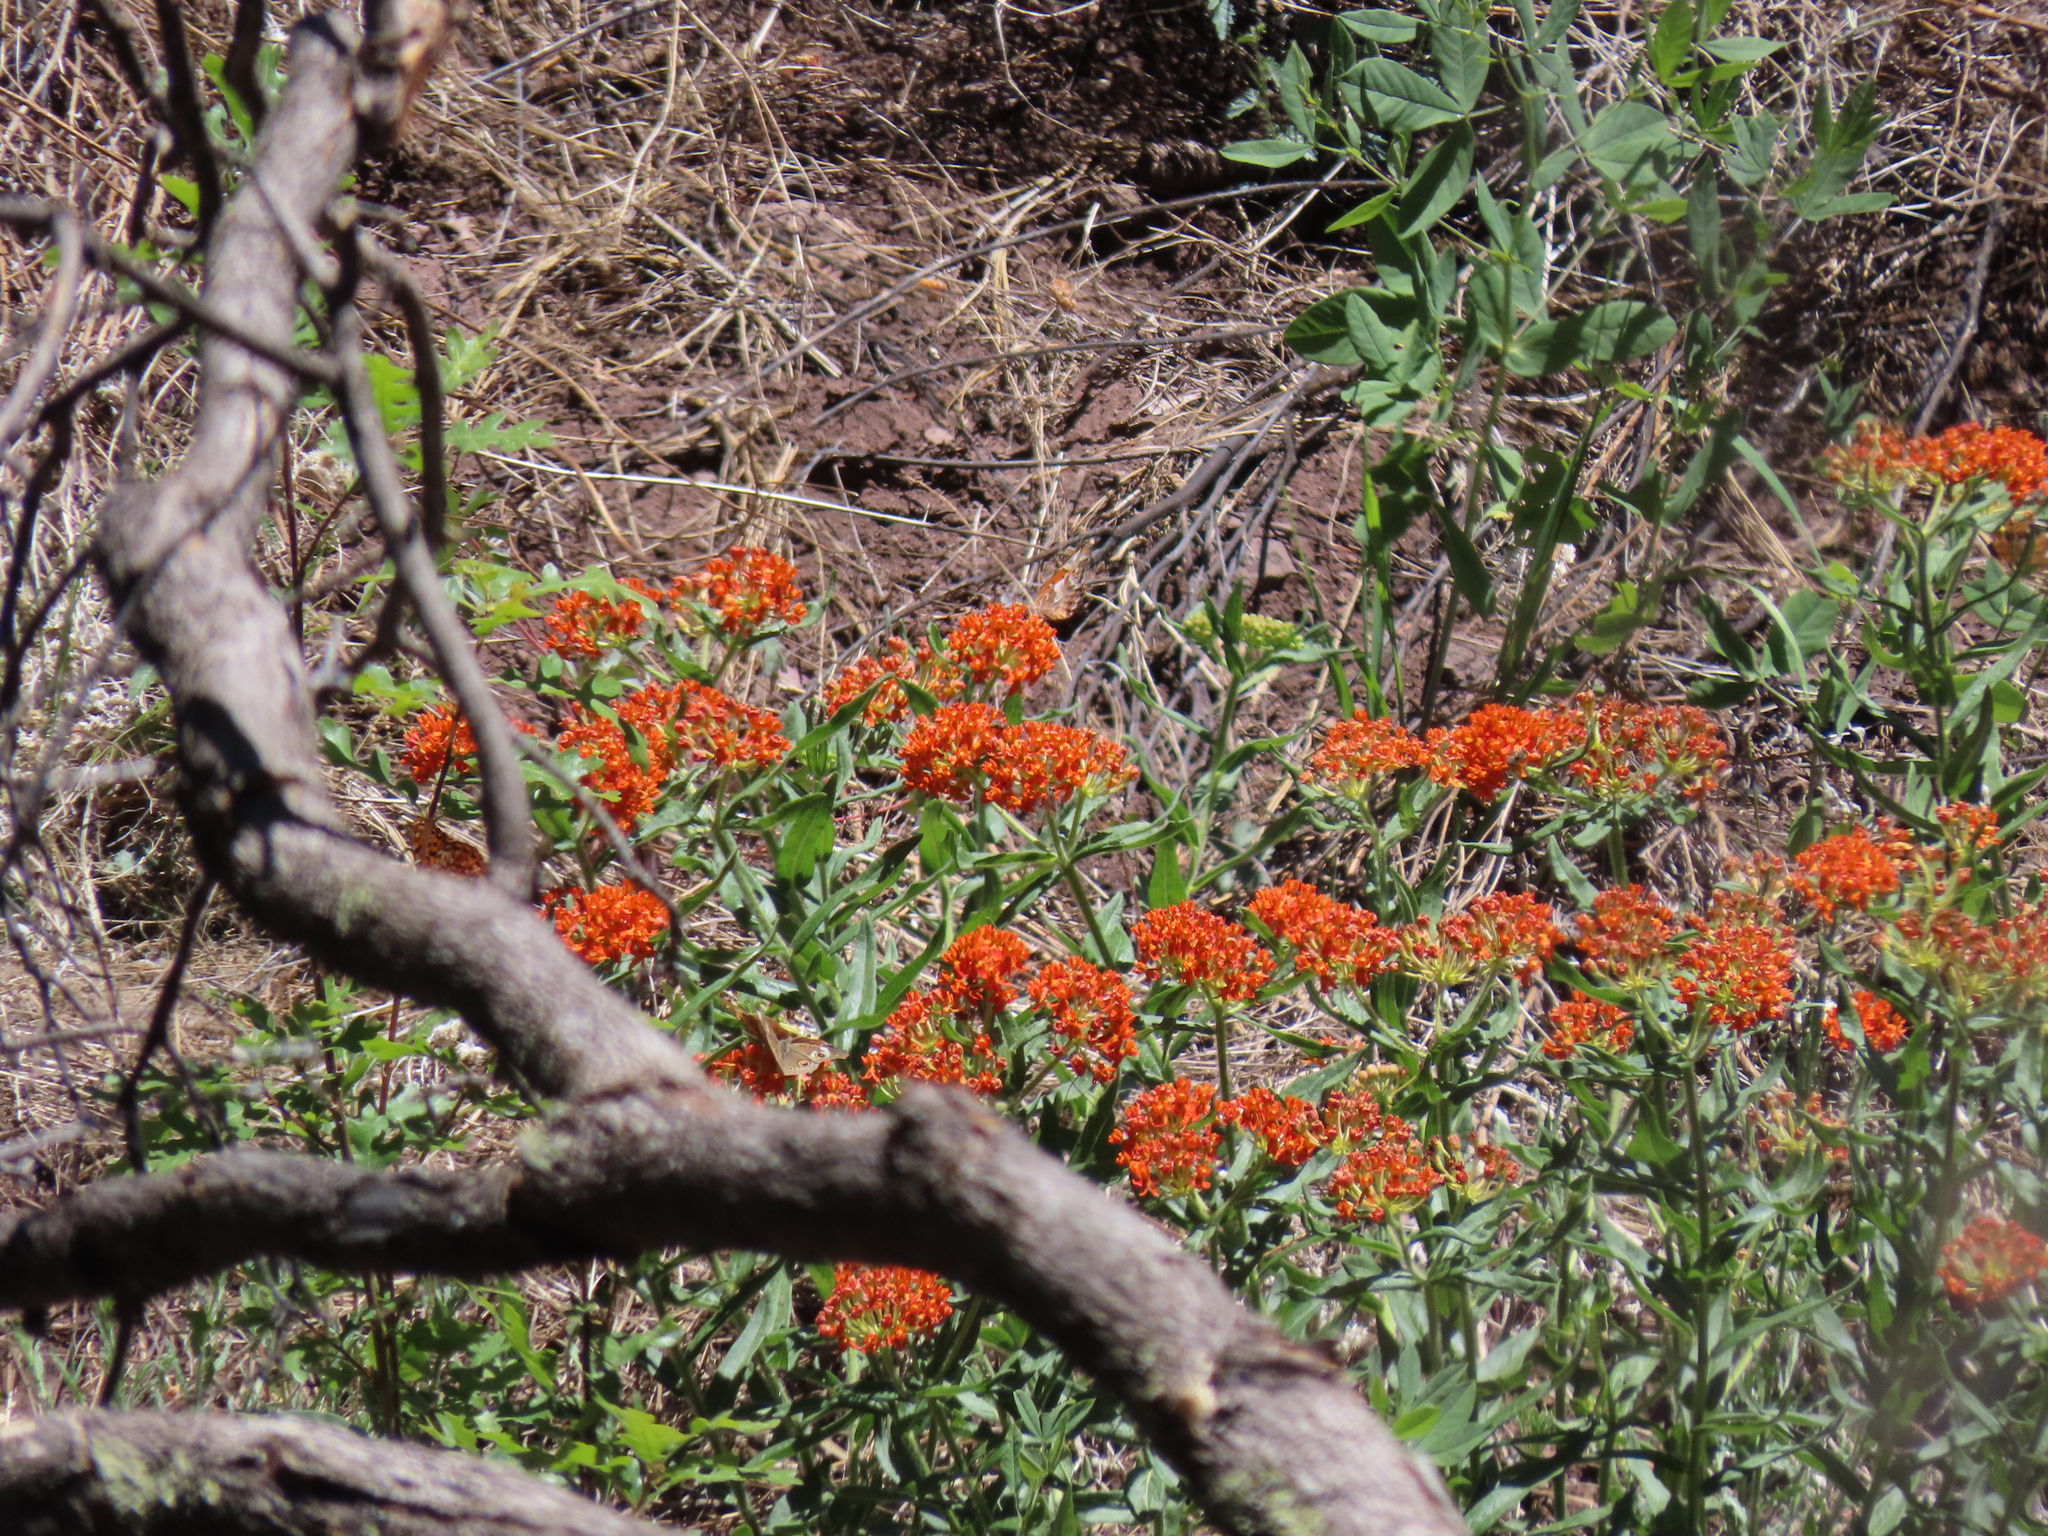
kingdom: Animalia
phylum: Arthropoda
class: Insecta
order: Lepidoptera
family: Nymphalidae
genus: Euptoieta
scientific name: Euptoieta claudia
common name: Variegated fritillary
